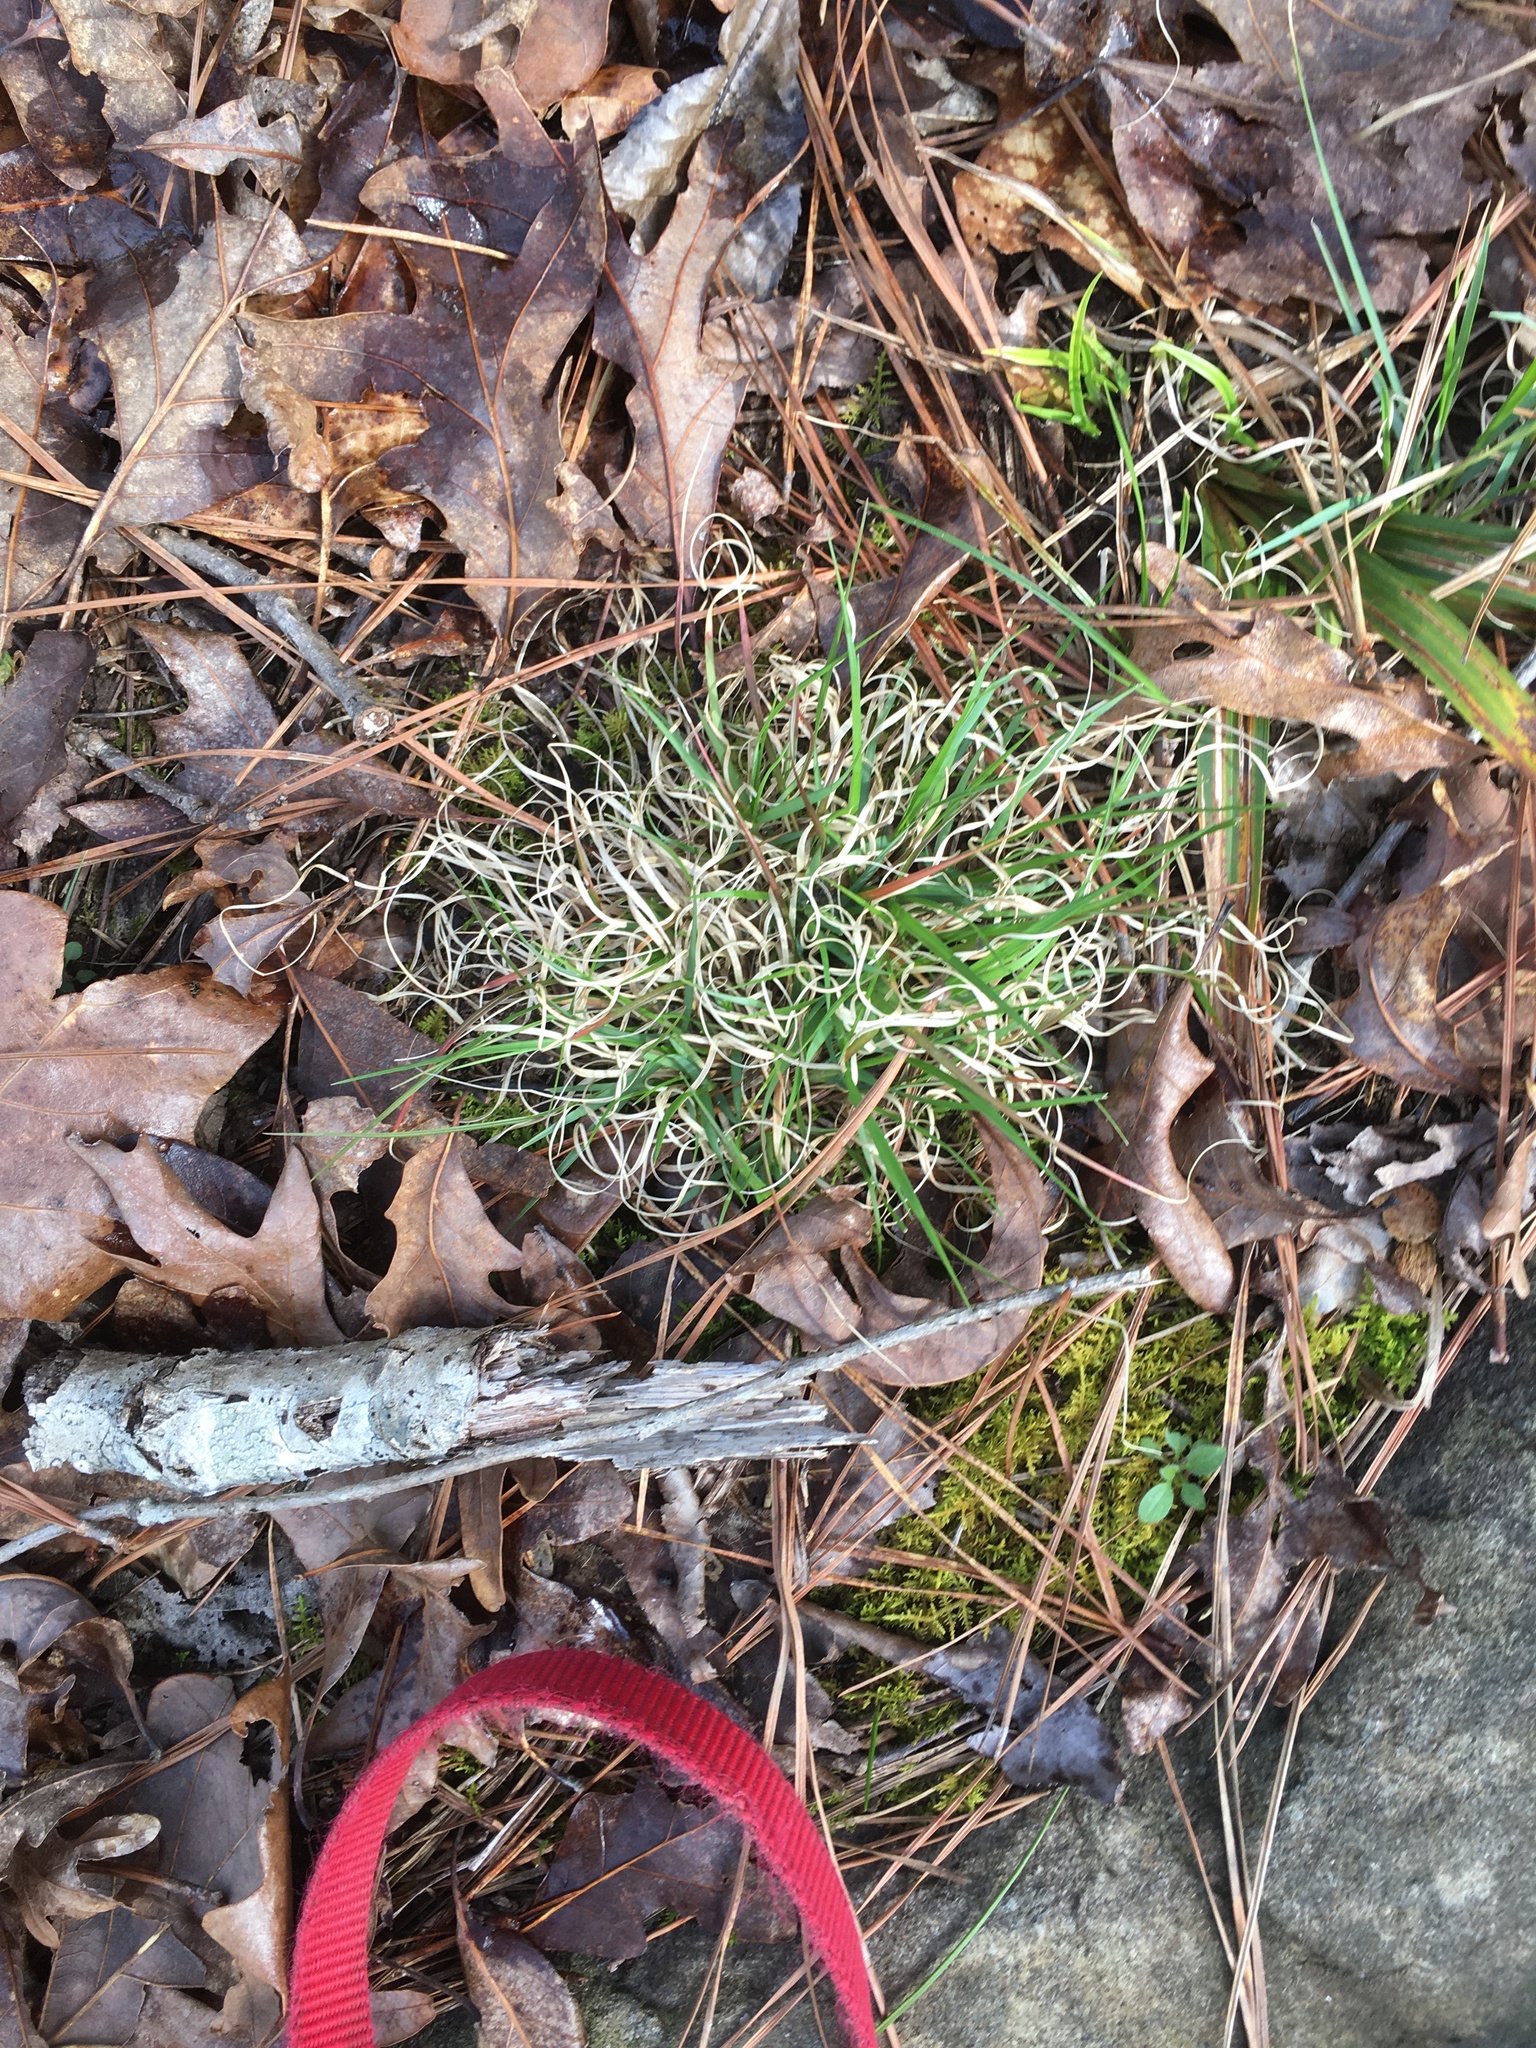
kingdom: Plantae
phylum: Tracheophyta
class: Liliopsida
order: Poales
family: Poaceae
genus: Danthonia
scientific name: Danthonia spicata
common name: Common wild oatgrass
